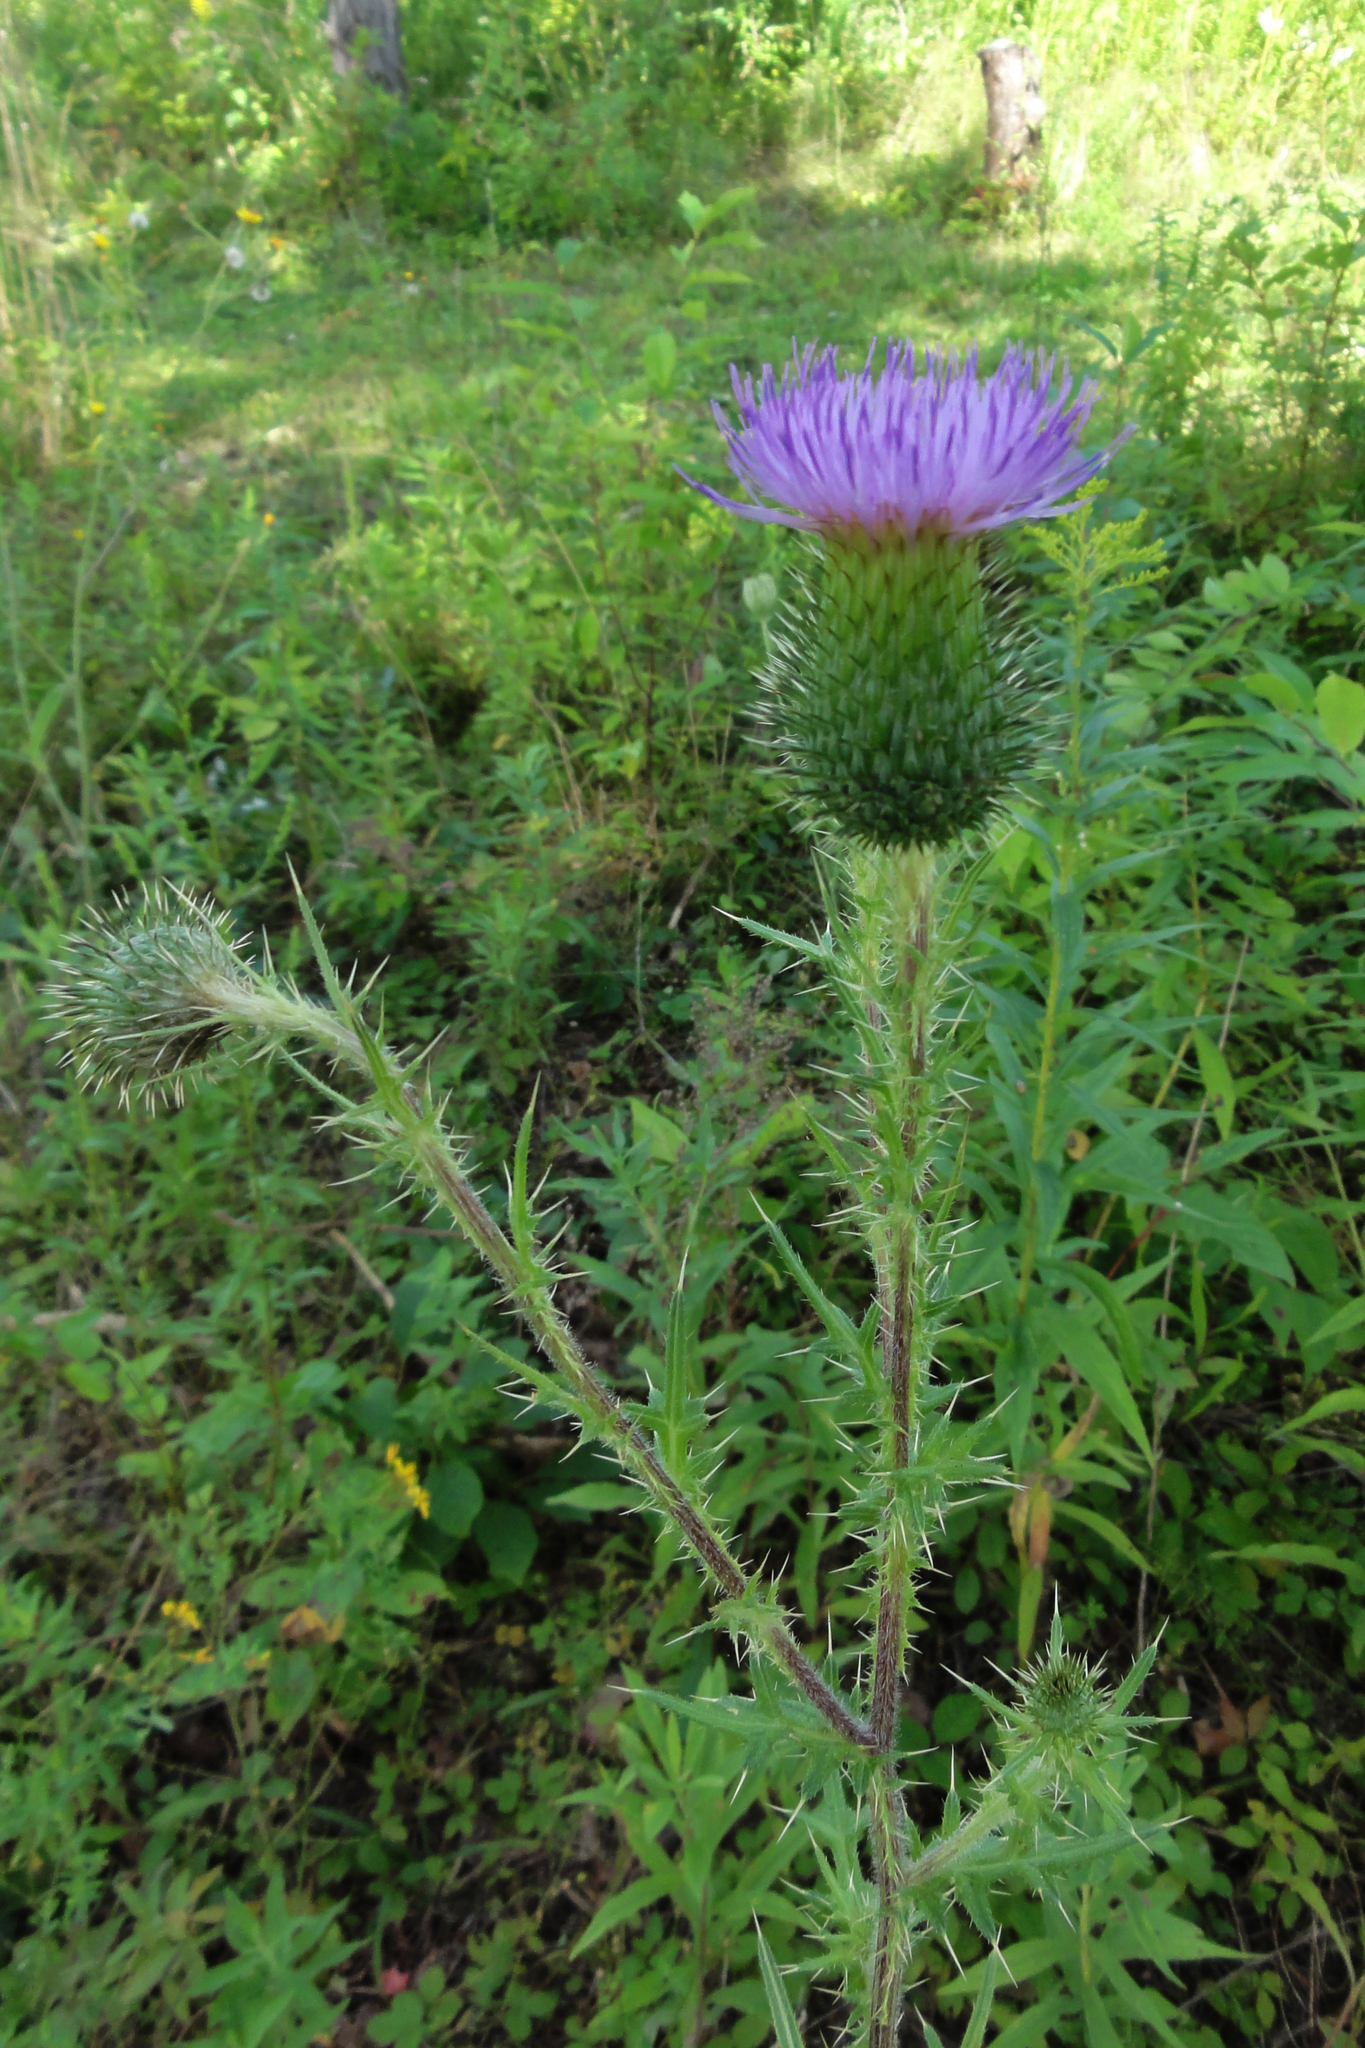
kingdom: Plantae
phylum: Tracheophyta
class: Magnoliopsida
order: Asterales
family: Asteraceae
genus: Cirsium
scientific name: Cirsium vulgare
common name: Bull thistle
